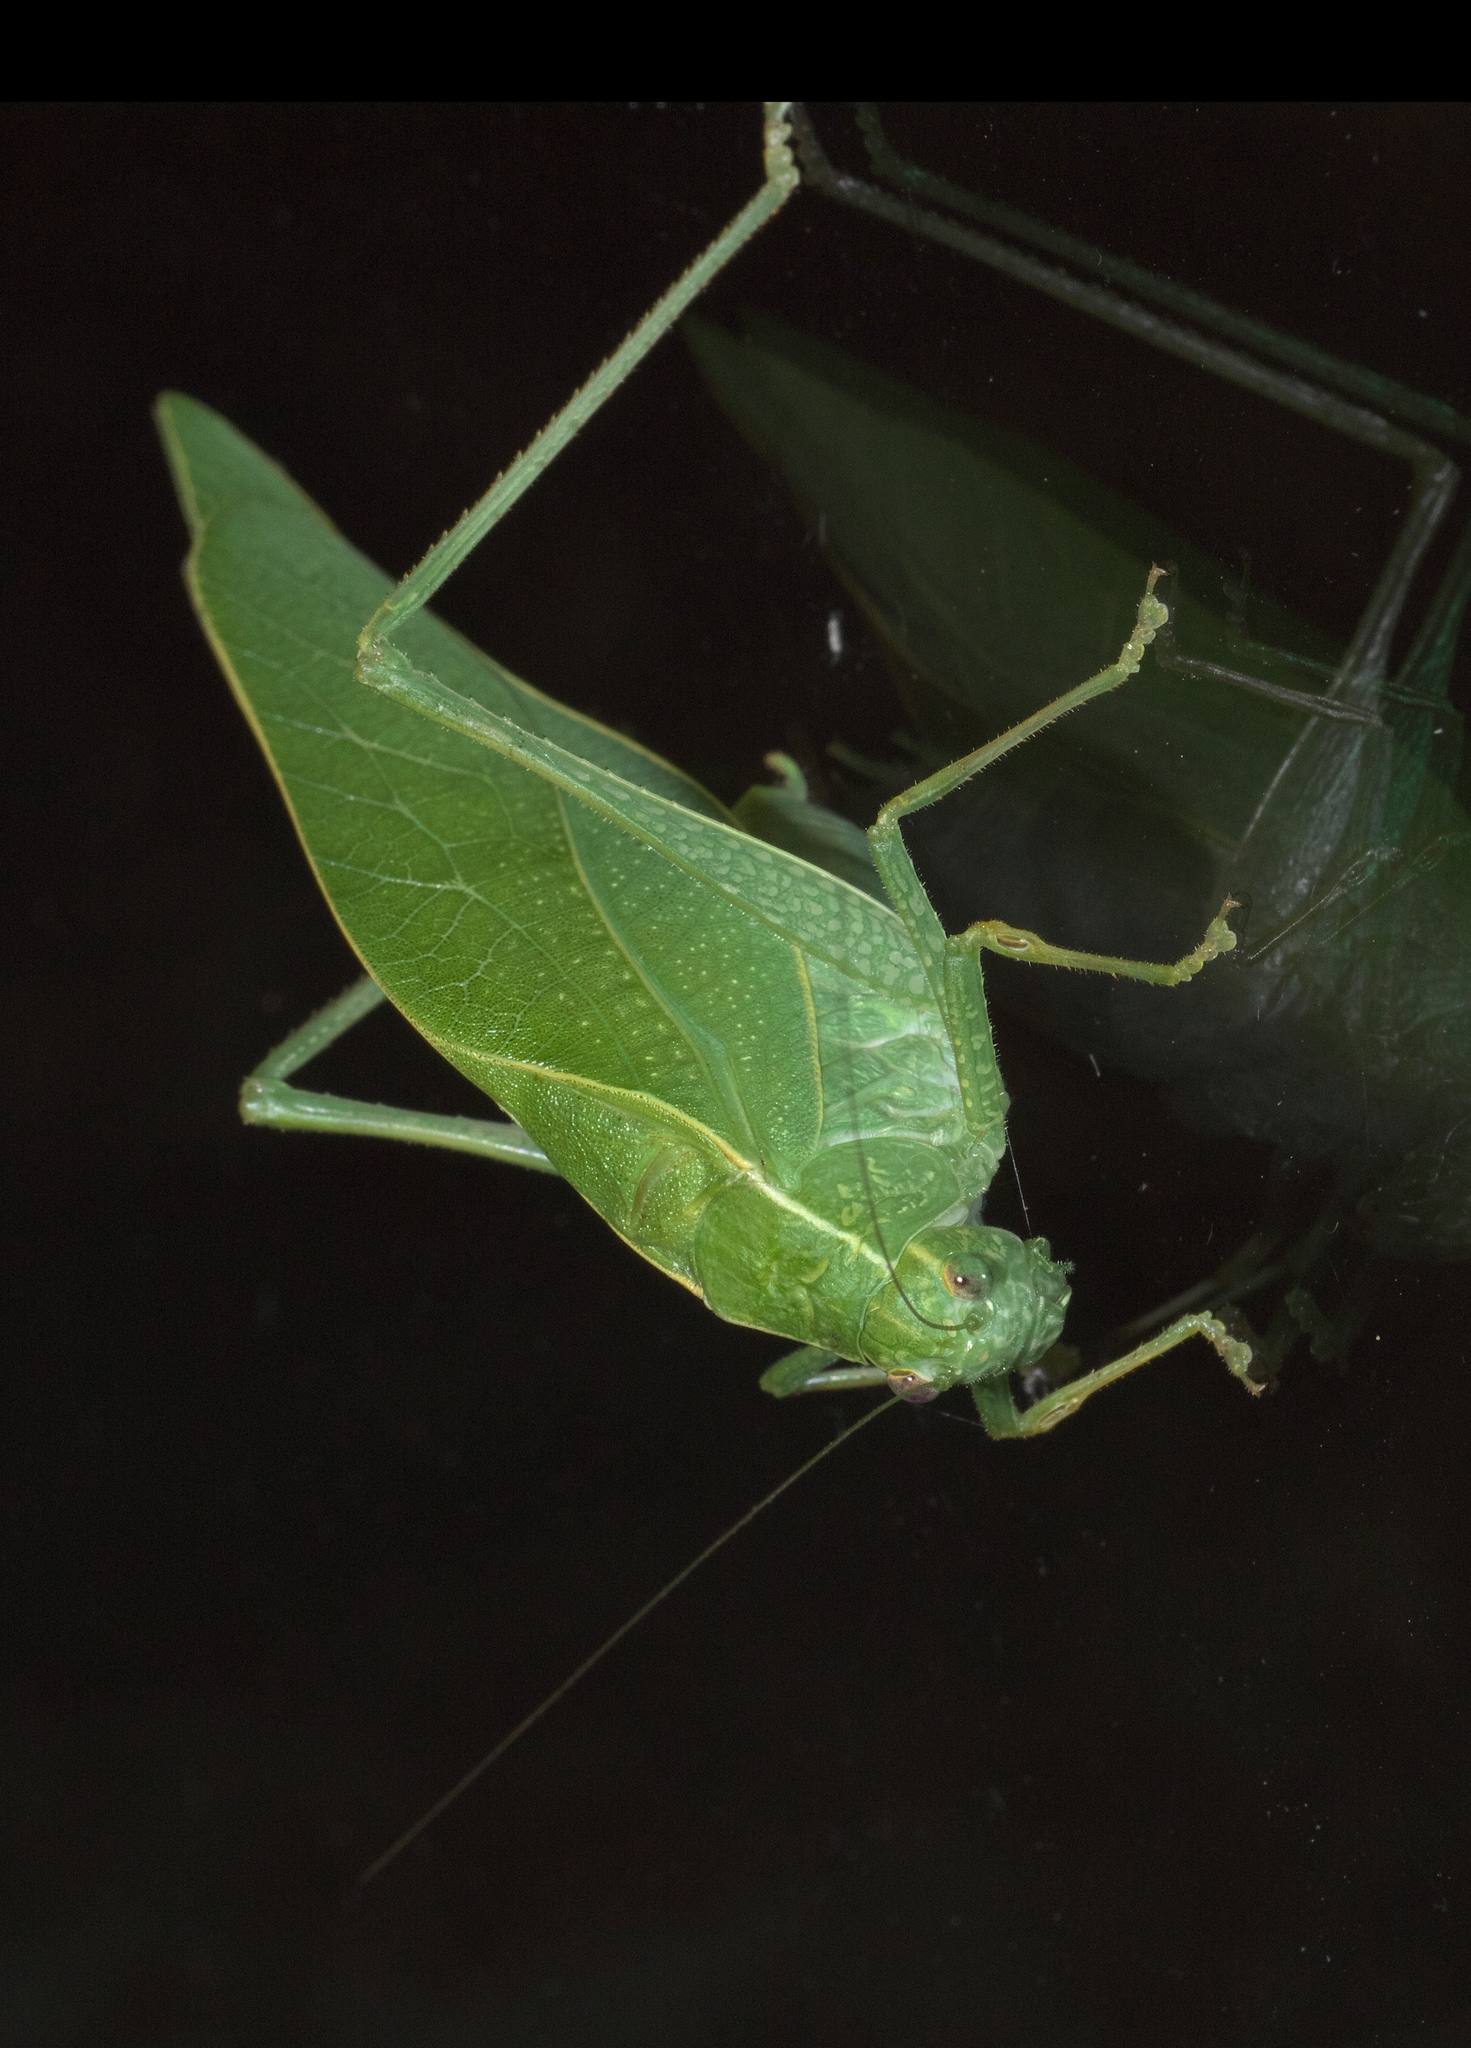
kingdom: Animalia
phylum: Arthropoda
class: Insecta
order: Orthoptera
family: Tettigoniidae
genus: Microcentrum
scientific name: Microcentrum rhombifolium
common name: Broad-winged katydid
